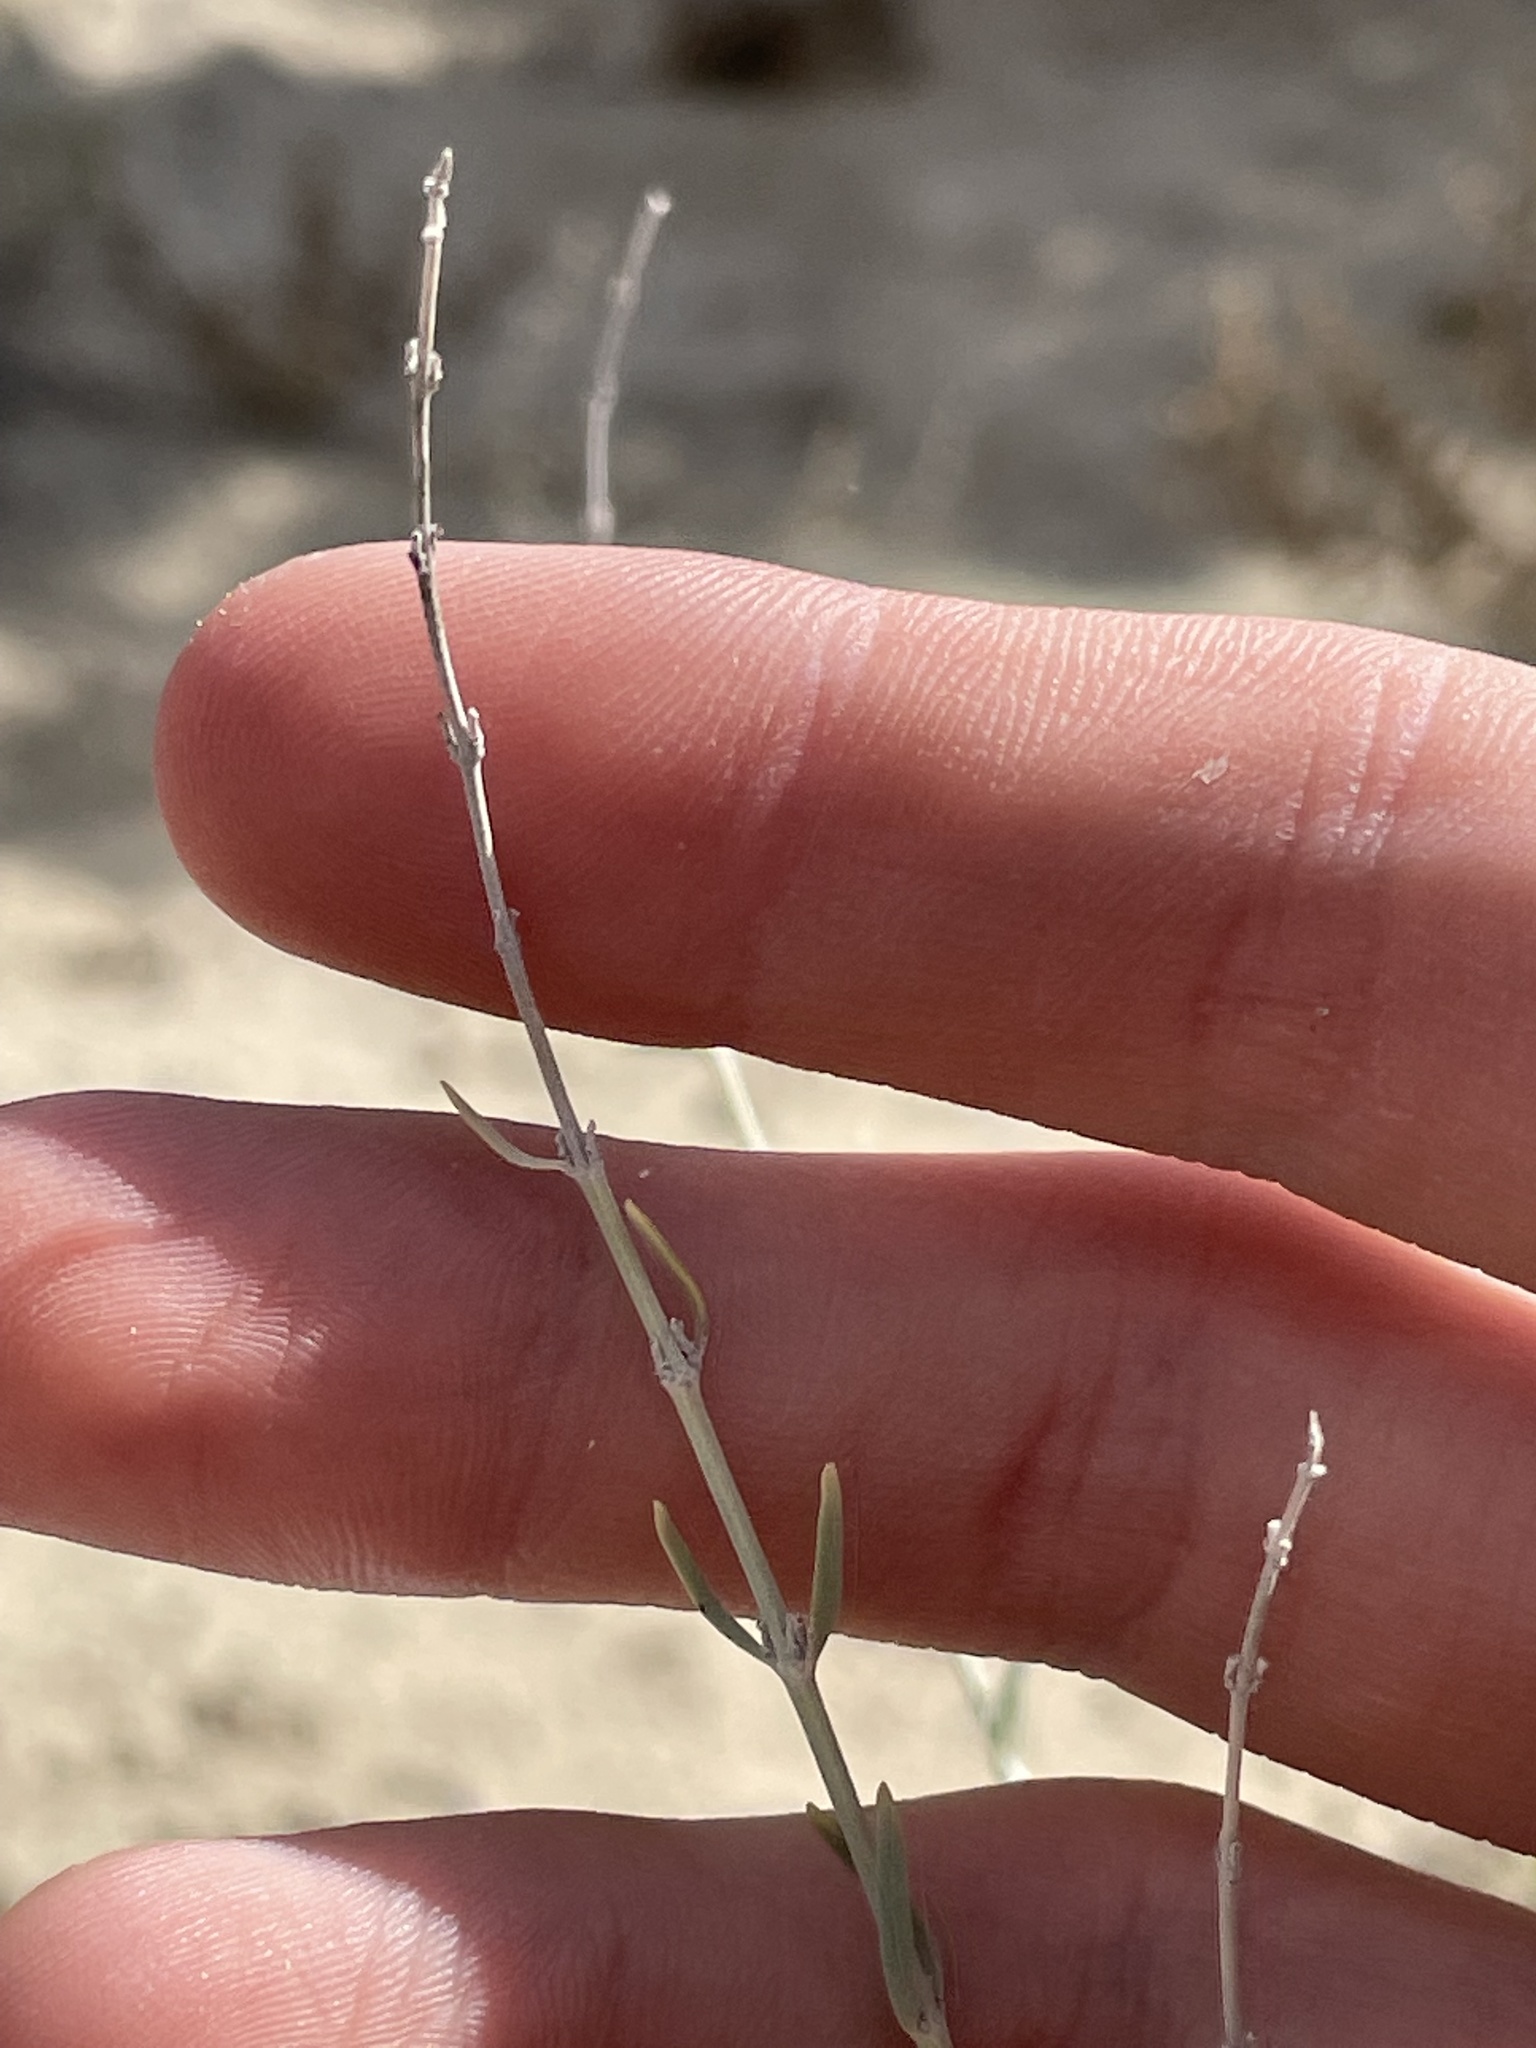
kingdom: Plantae
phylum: Tracheophyta
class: Magnoliopsida
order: Lamiales
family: Lamiaceae
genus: Poliomintha
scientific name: Poliomintha incana
